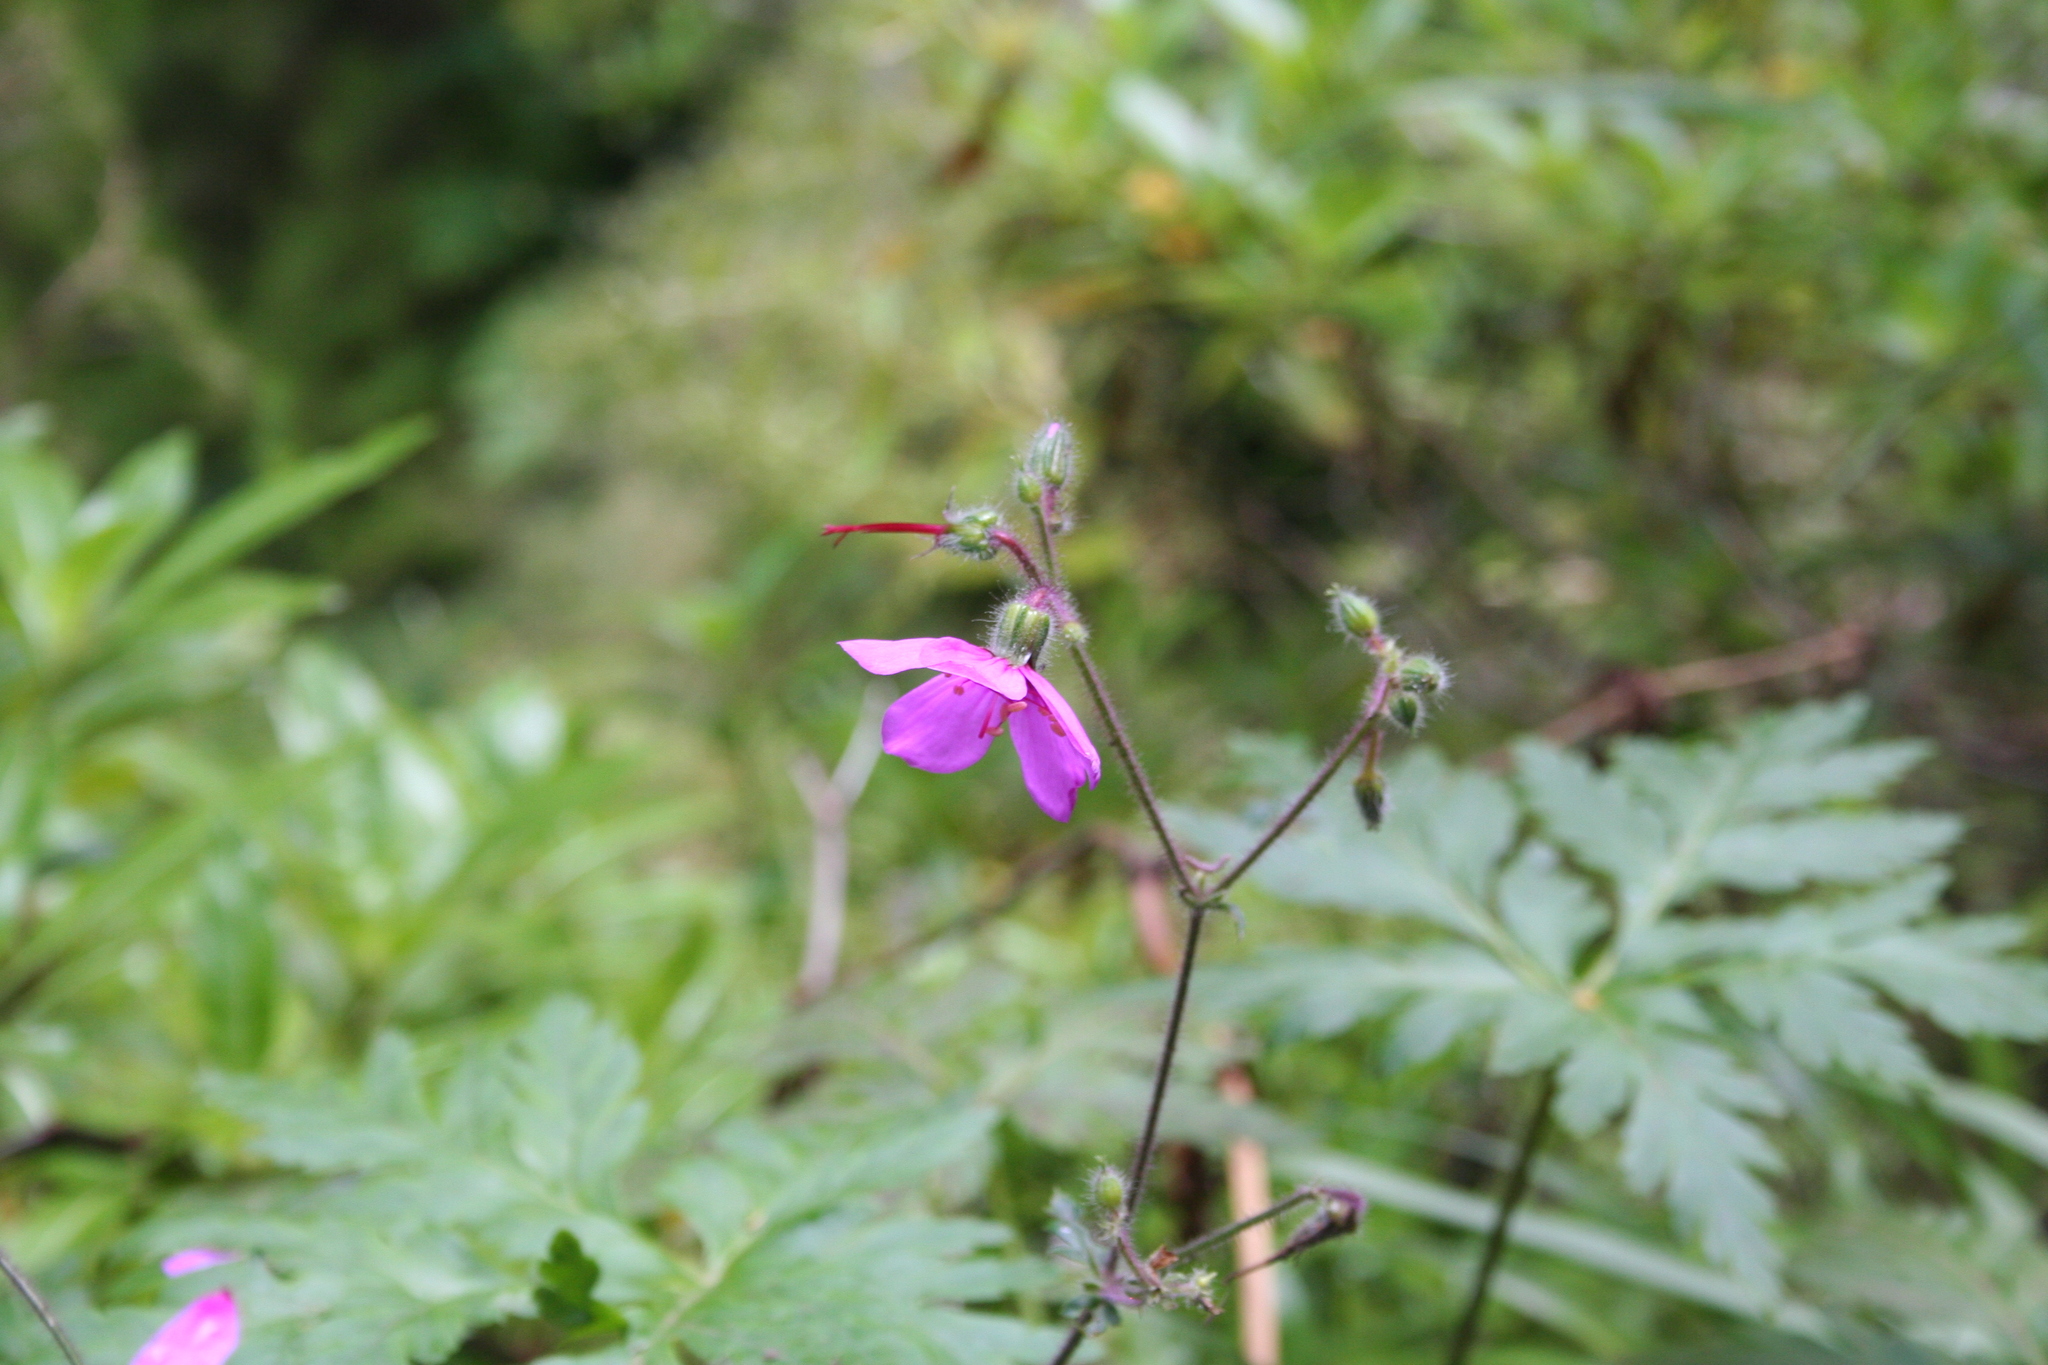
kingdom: Plantae
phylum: Tracheophyta
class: Magnoliopsida
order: Geraniales
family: Geraniaceae
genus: Geranium
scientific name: Geranium palmatum
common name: Canary island geranium
